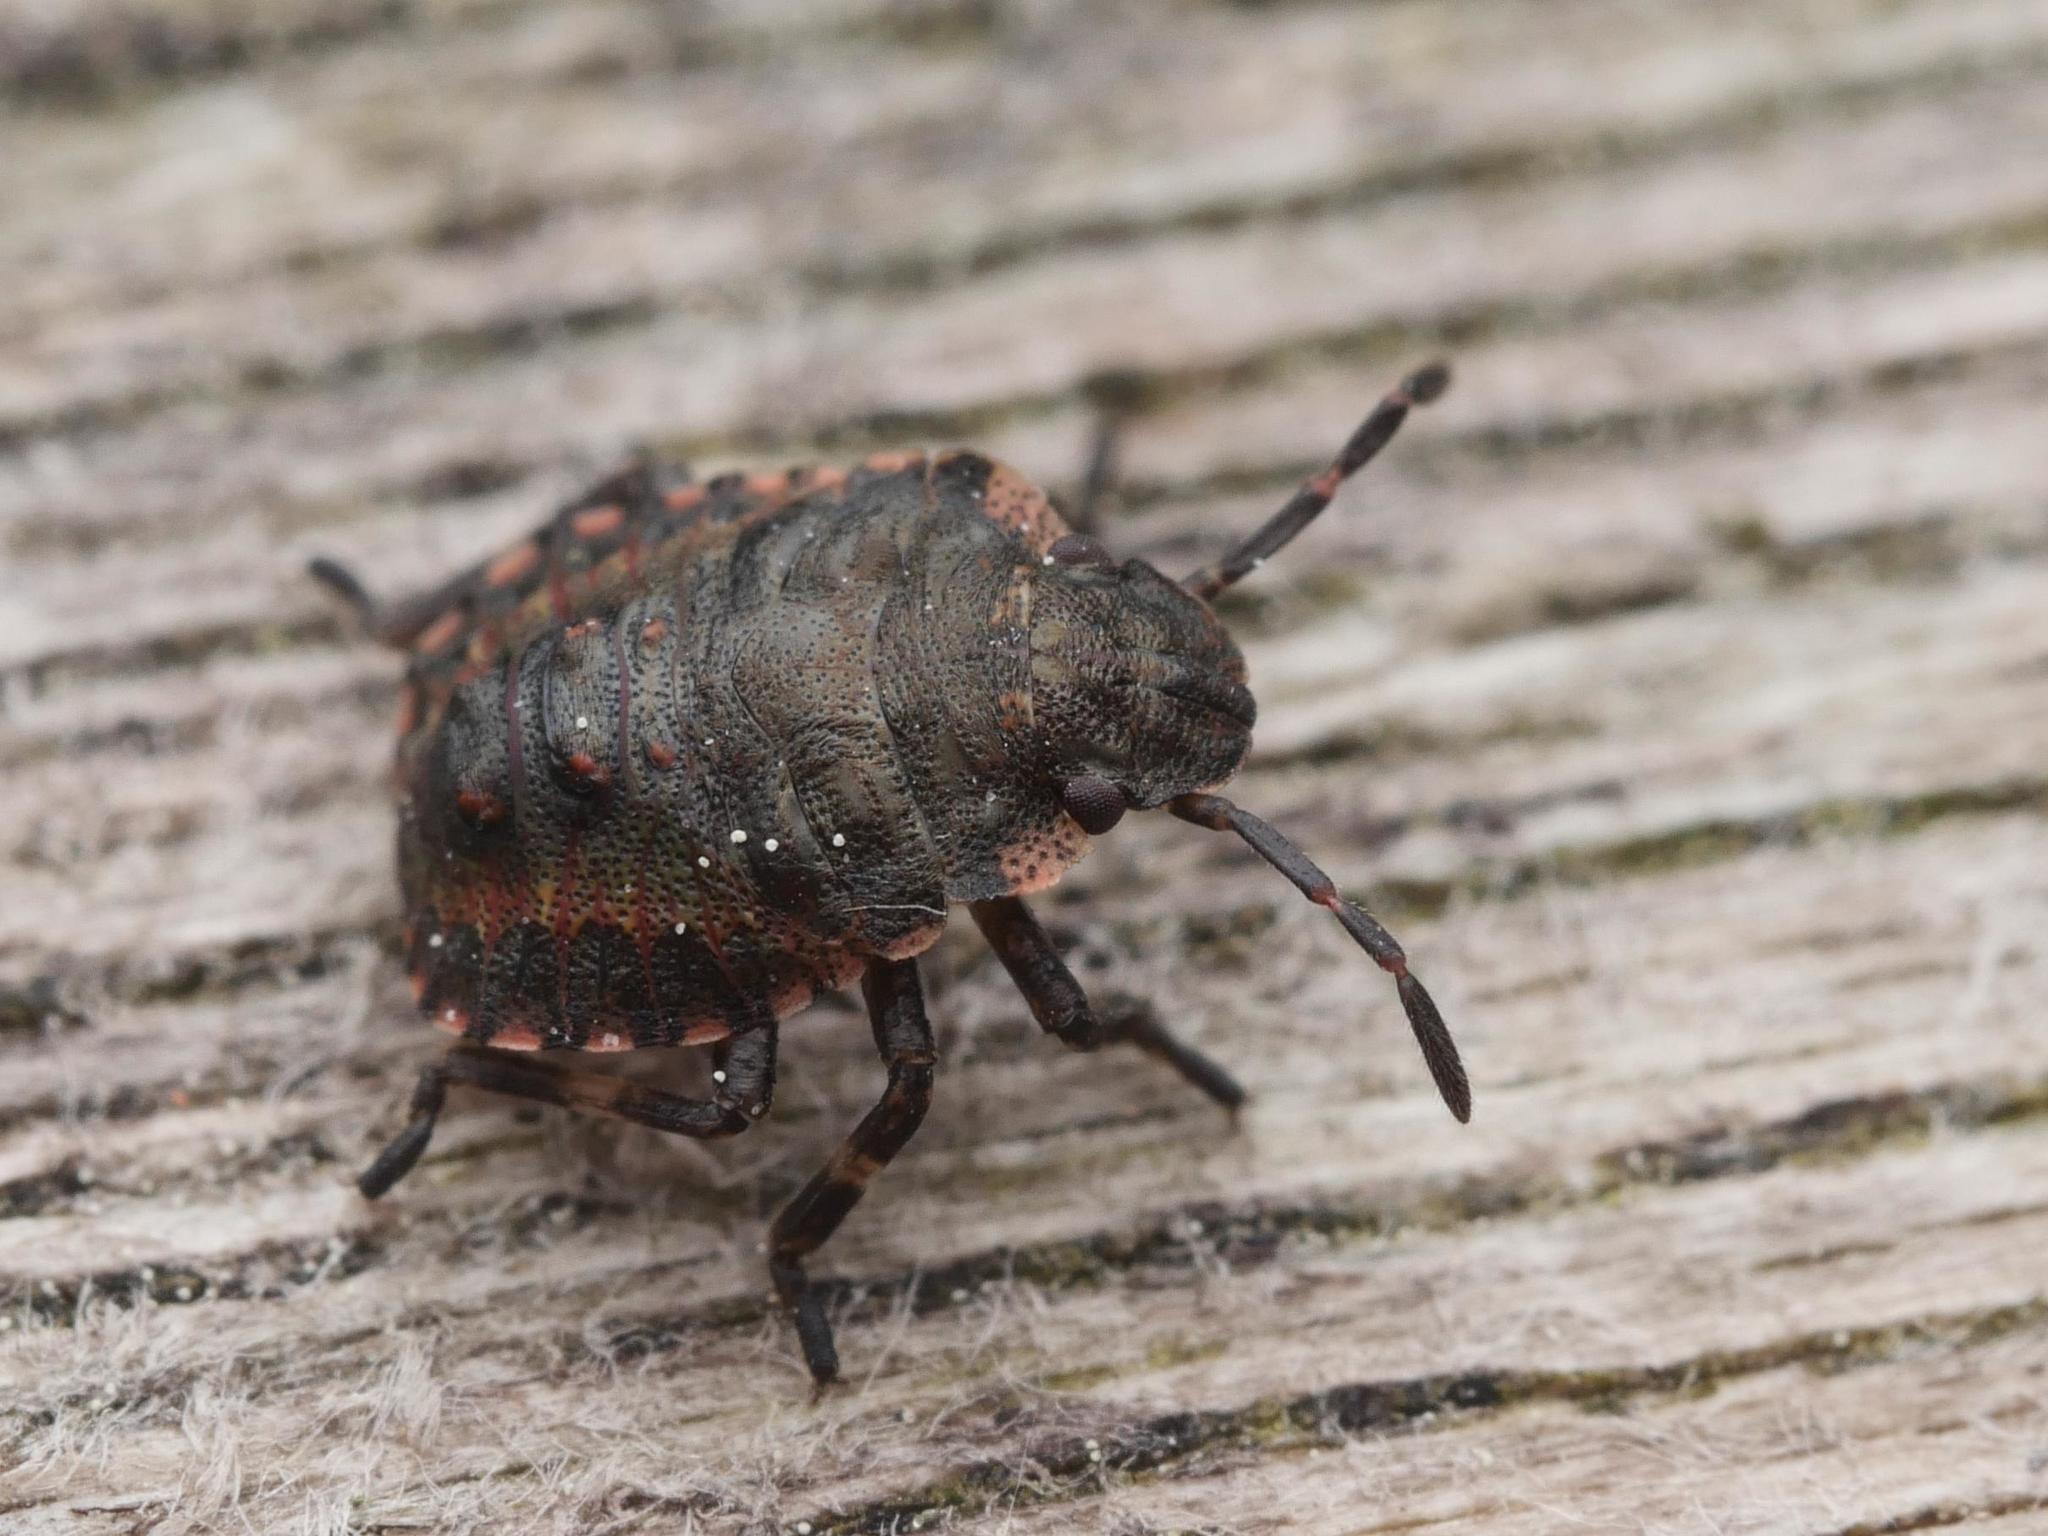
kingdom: Animalia
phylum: Arthropoda
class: Insecta
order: Hemiptera
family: Pentatomidae
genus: Pentatoma
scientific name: Pentatoma rufipes
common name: Forest bug
